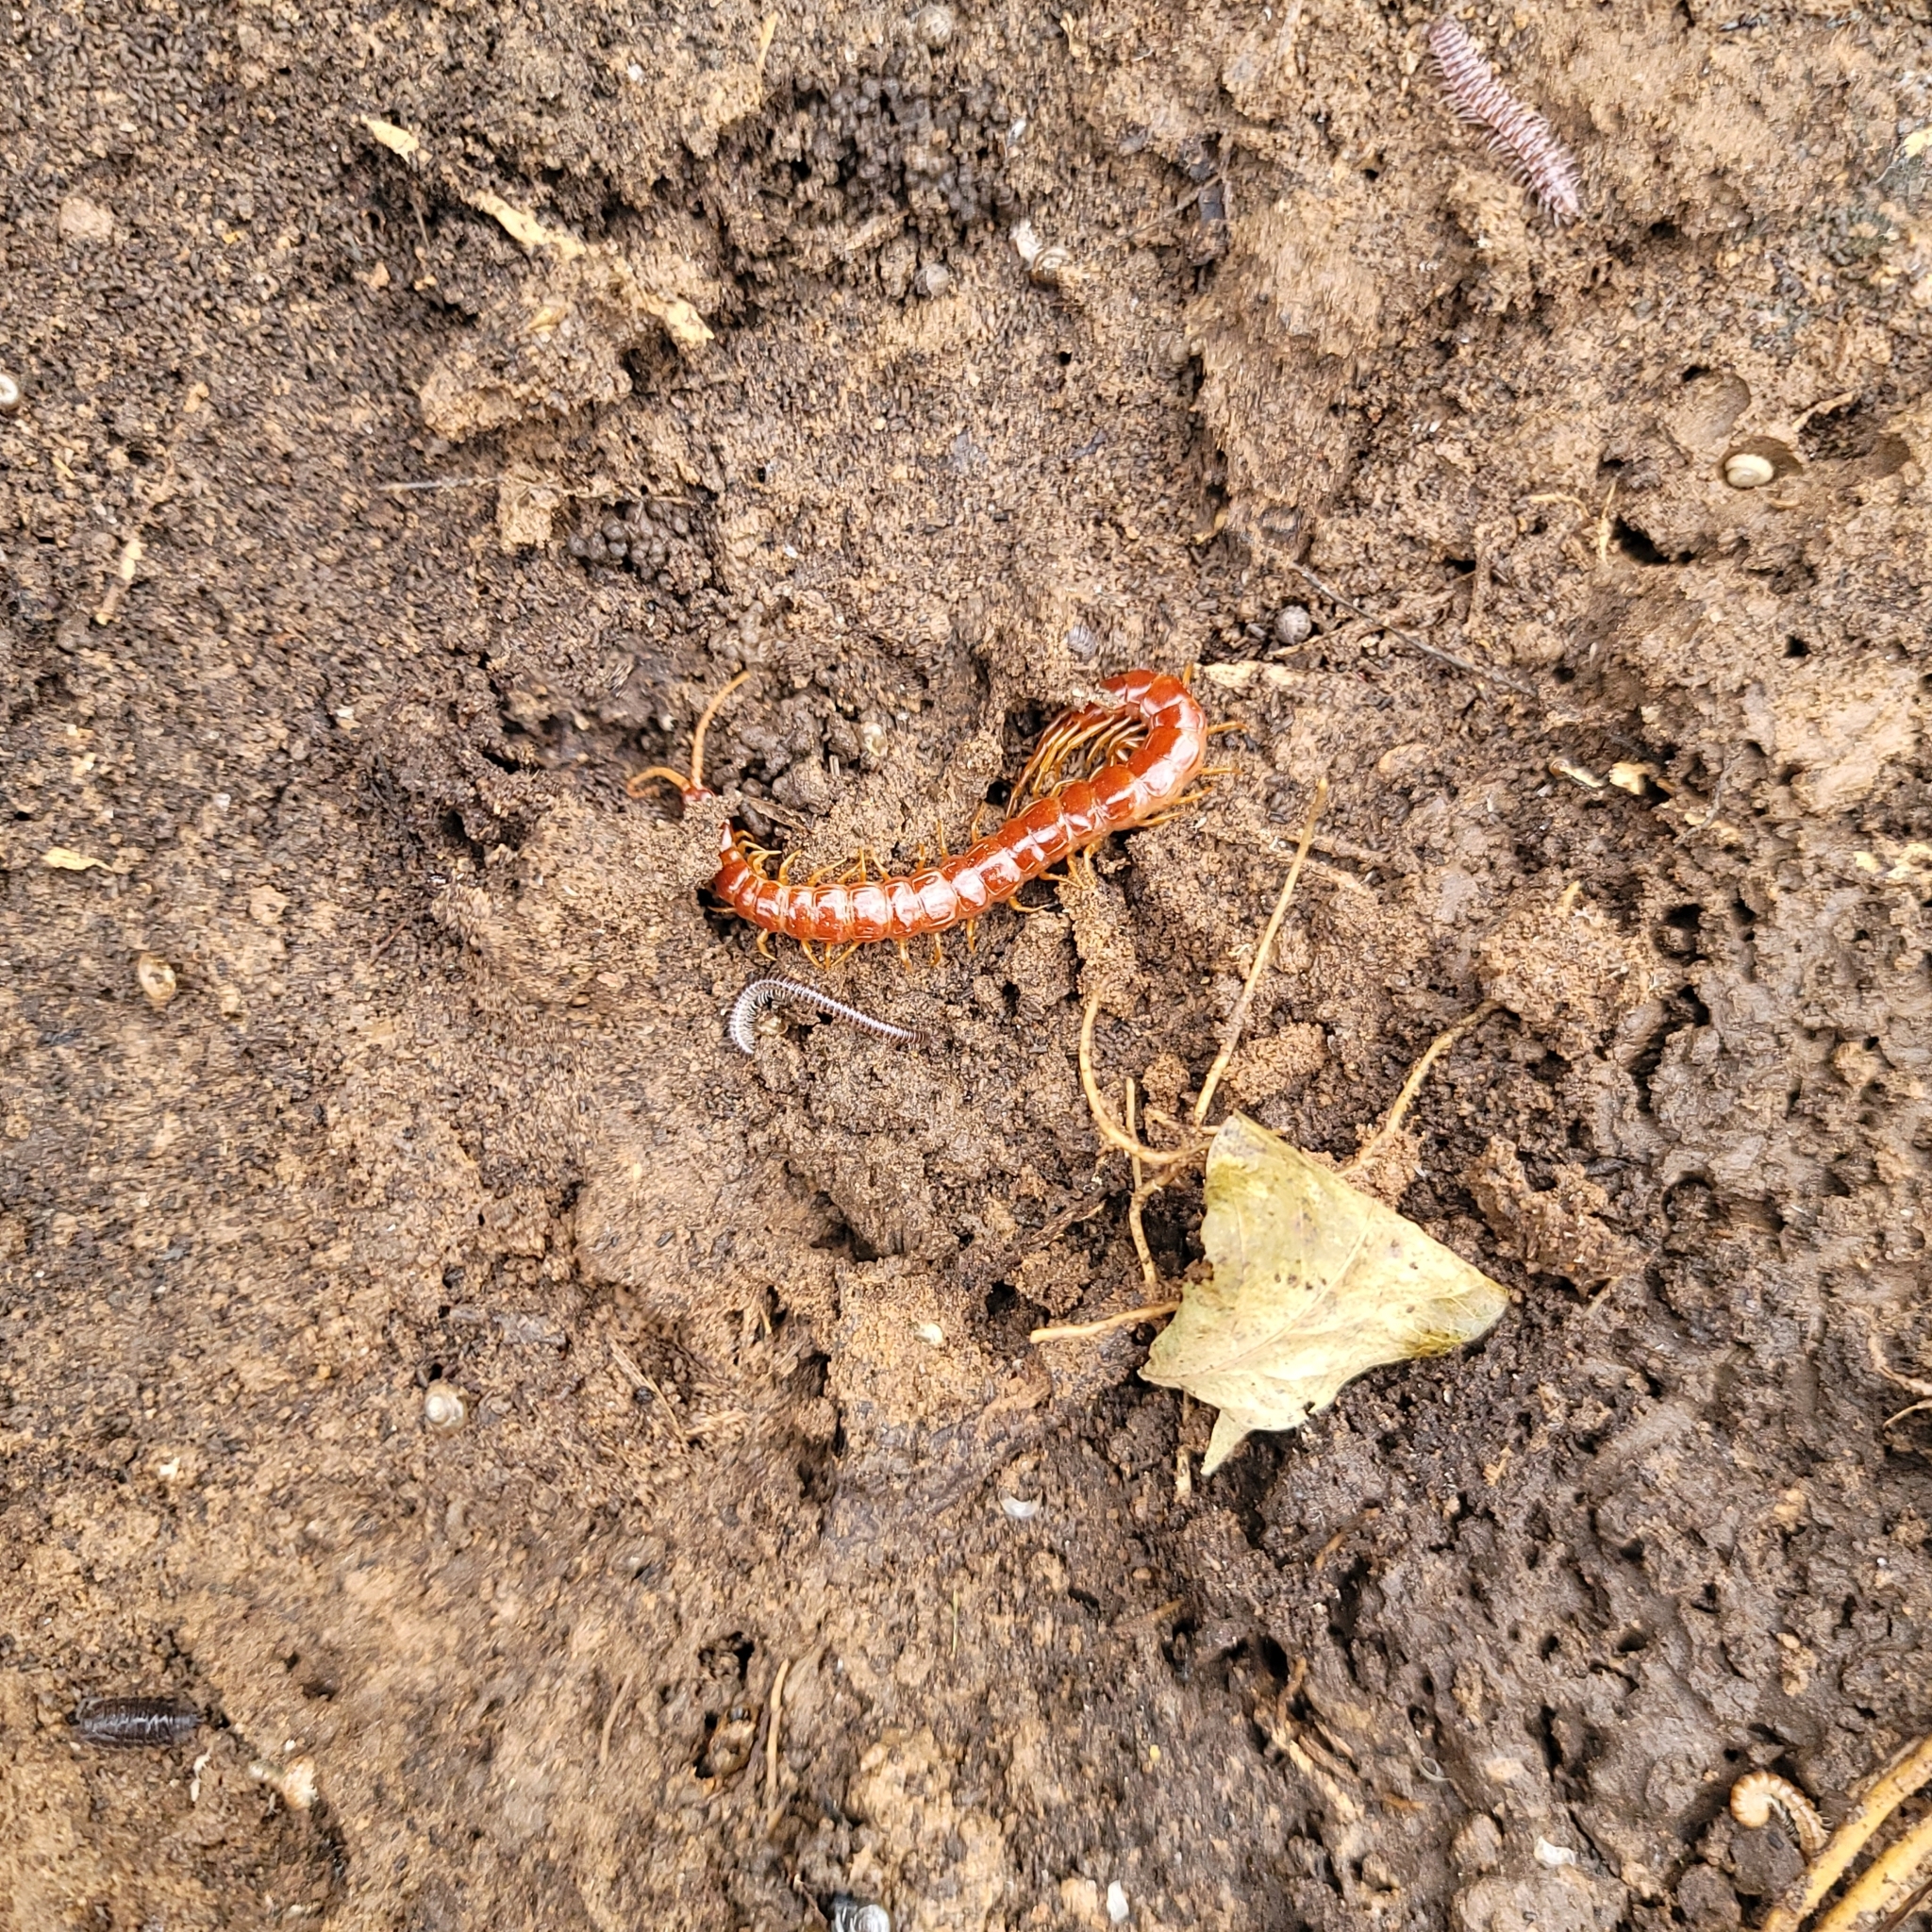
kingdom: Animalia
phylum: Arthropoda
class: Chilopoda
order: Scolopendromorpha
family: Scolopocryptopidae
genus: Scolopocryptops
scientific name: Scolopocryptops sexspinosus
